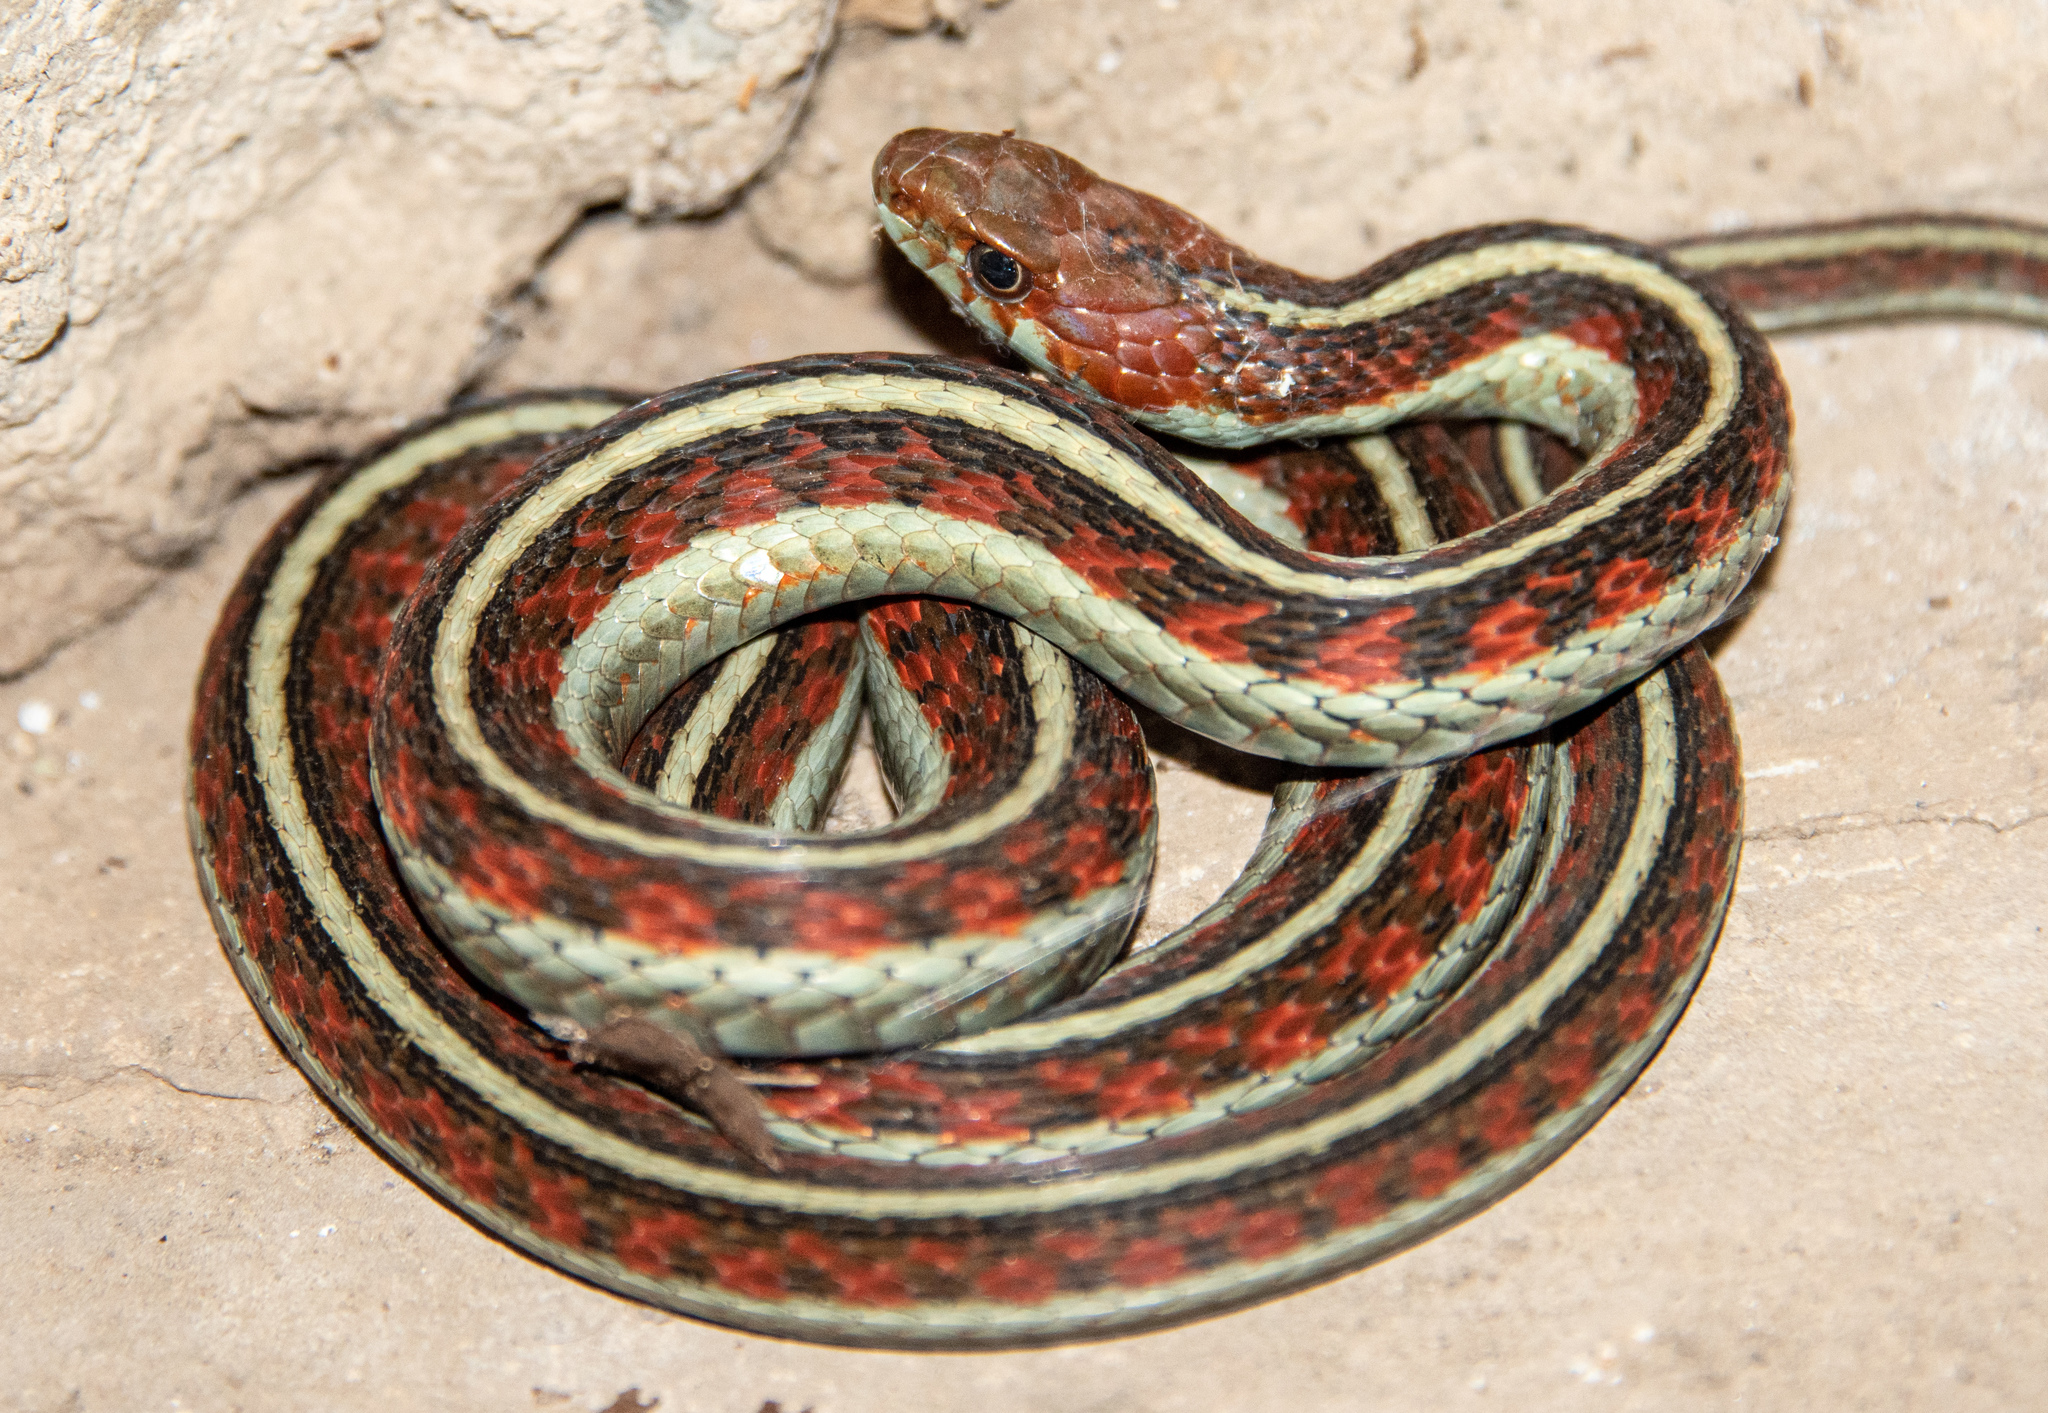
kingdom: Animalia
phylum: Chordata
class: Squamata
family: Colubridae
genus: Thamnophis
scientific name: Thamnophis sirtalis
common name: Common garter snake
